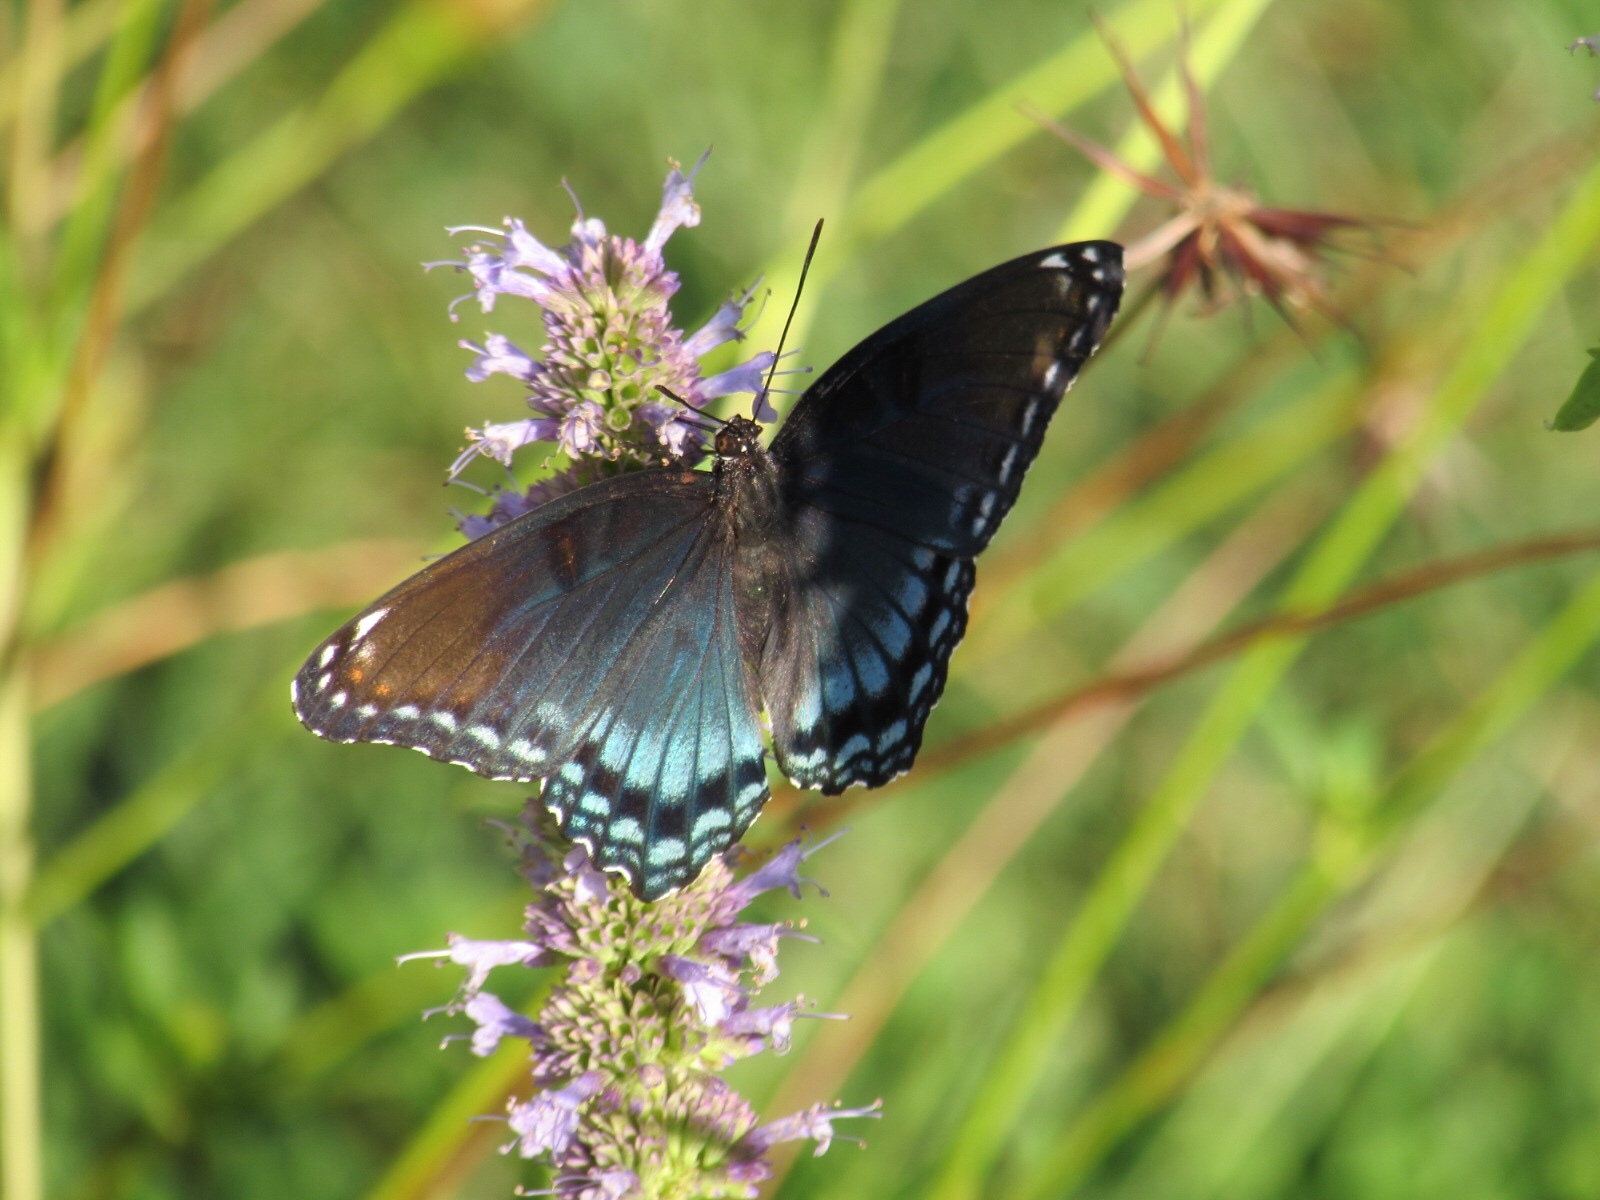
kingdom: Animalia
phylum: Arthropoda
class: Insecta
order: Lepidoptera
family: Nymphalidae
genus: Limenitis
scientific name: Limenitis astyanax
